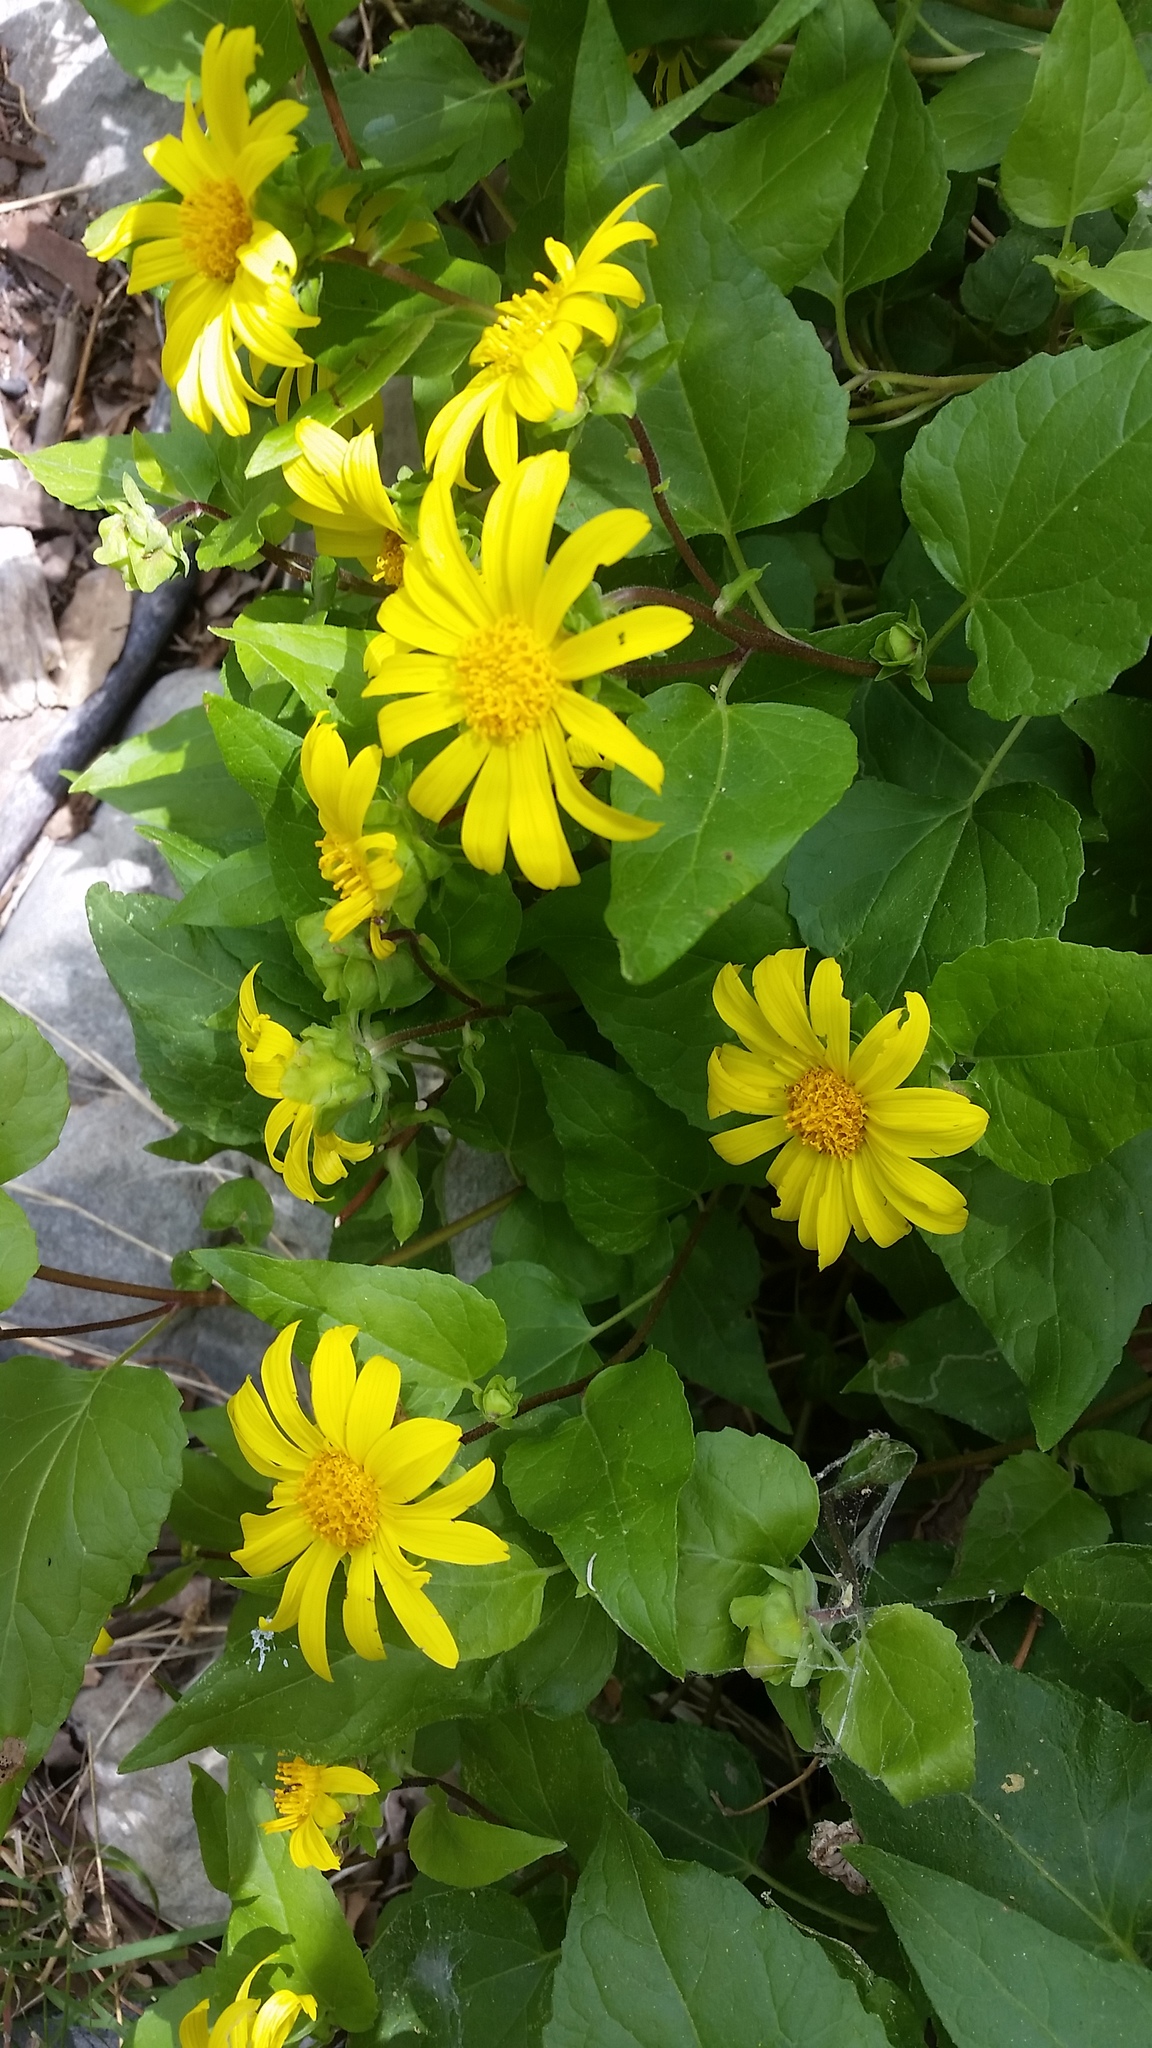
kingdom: Plantae
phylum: Tracheophyta
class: Magnoliopsida
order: Asterales
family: Asteraceae
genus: Venegasia
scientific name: Venegasia carpesioides
